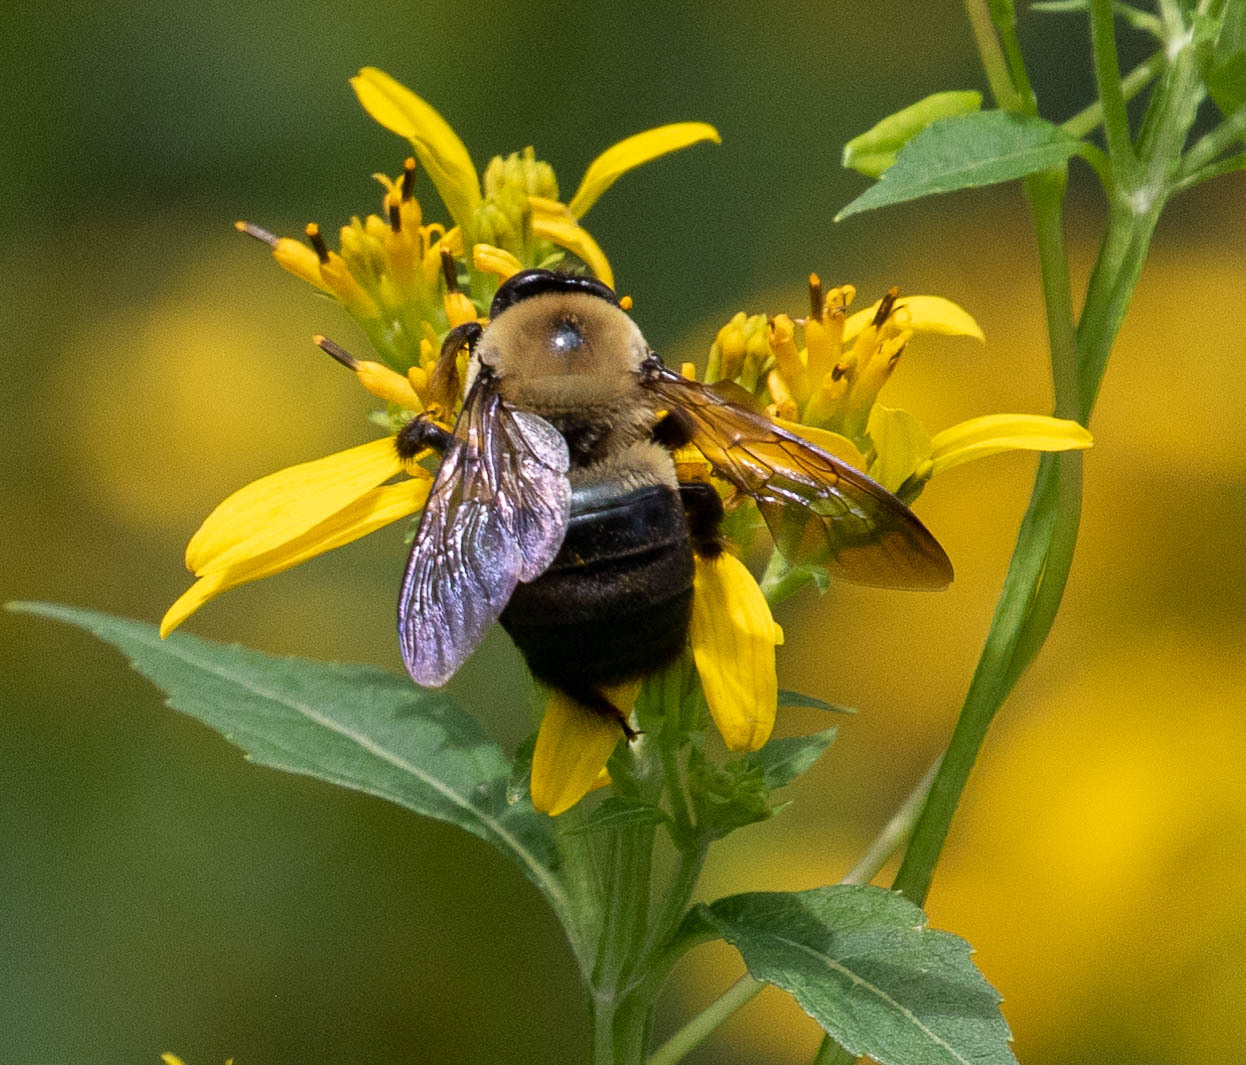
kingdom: Animalia
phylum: Arthropoda
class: Insecta
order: Hymenoptera
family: Apidae
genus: Xylocopa
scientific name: Xylocopa virginica
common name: Carpenter bee
